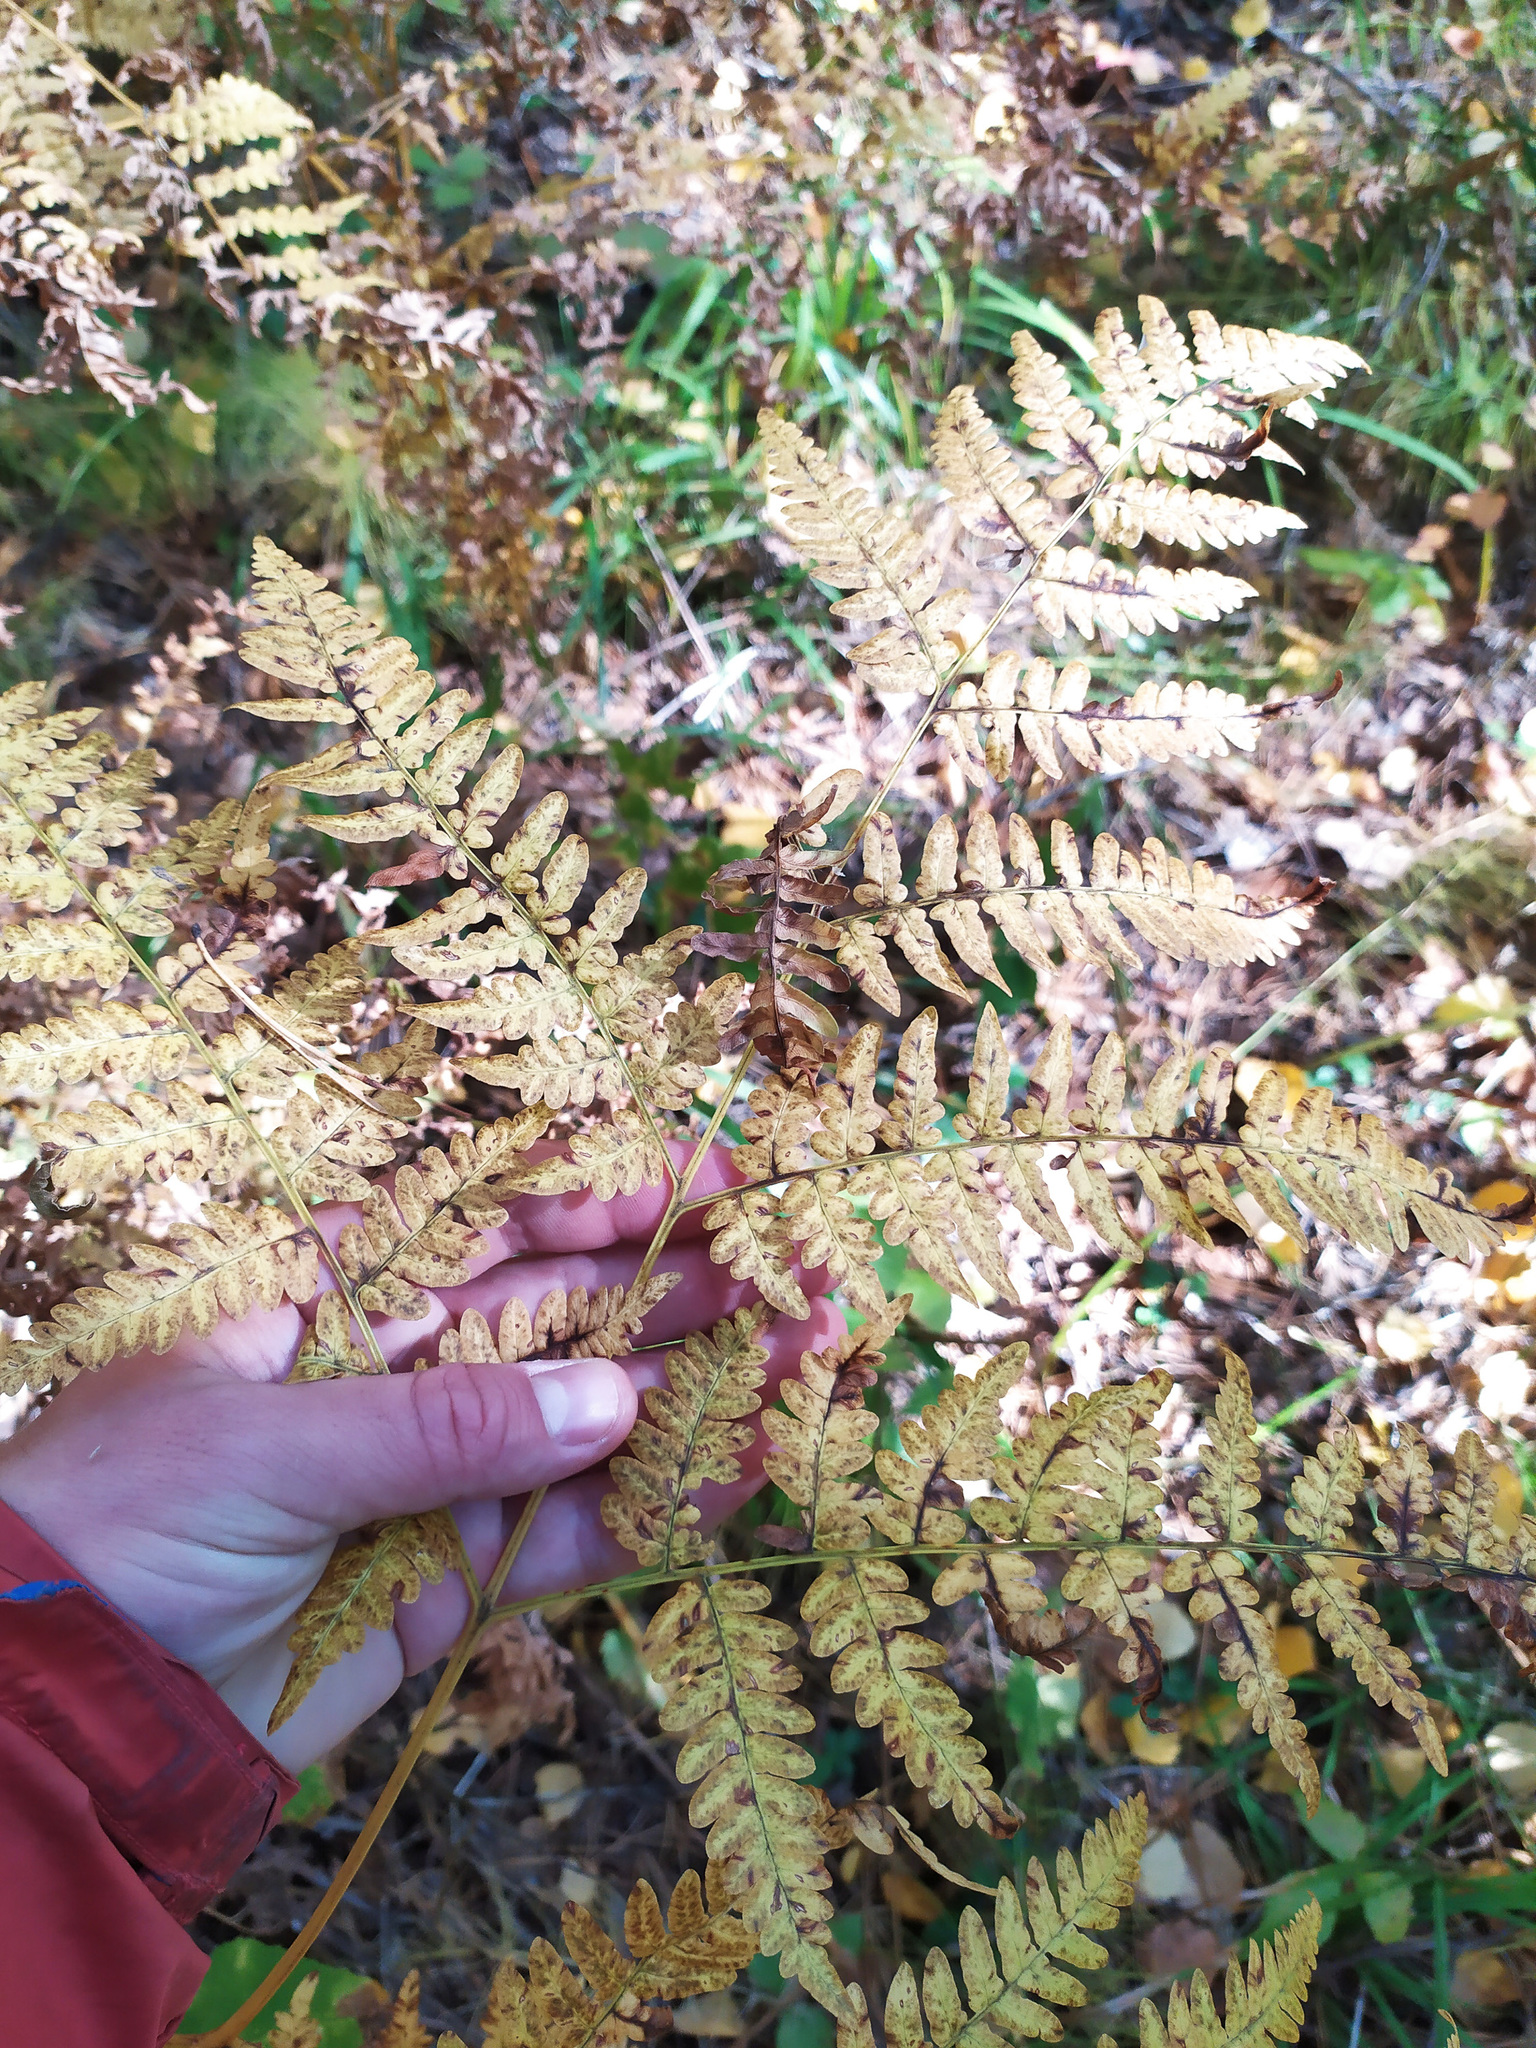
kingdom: Plantae
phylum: Tracheophyta
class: Polypodiopsida
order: Polypodiales
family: Dennstaedtiaceae
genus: Pteridium
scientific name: Pteridium aquilinum
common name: Bracken
